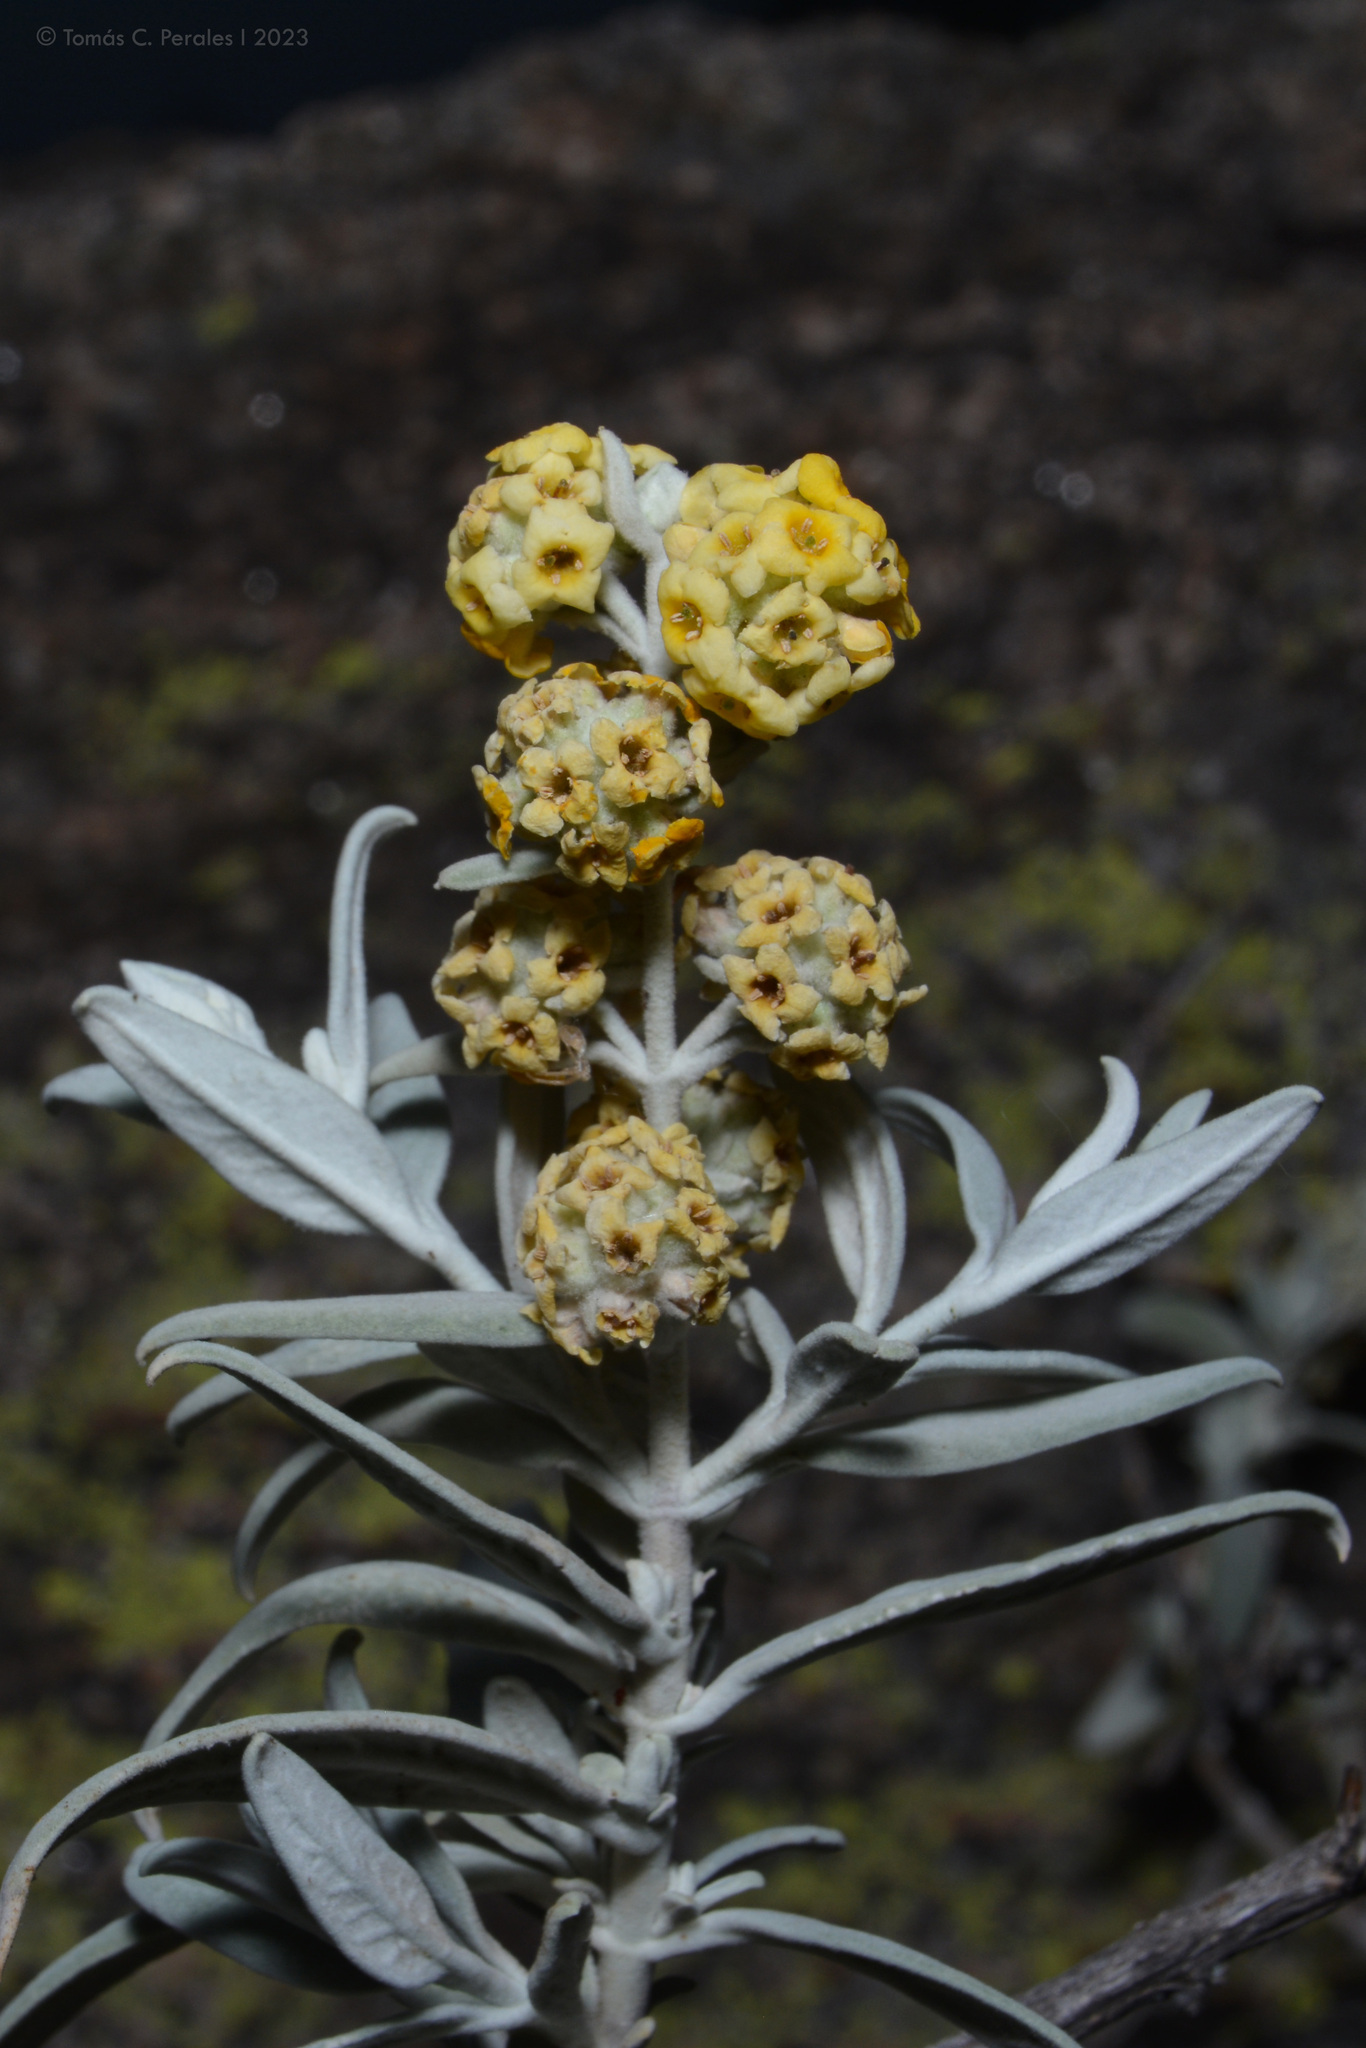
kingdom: Plantae
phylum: Tracheophyta
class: Magnoliopsida
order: Lamiales
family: Scrophulariaceae
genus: Buddleja
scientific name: Buddleja cordobensis
